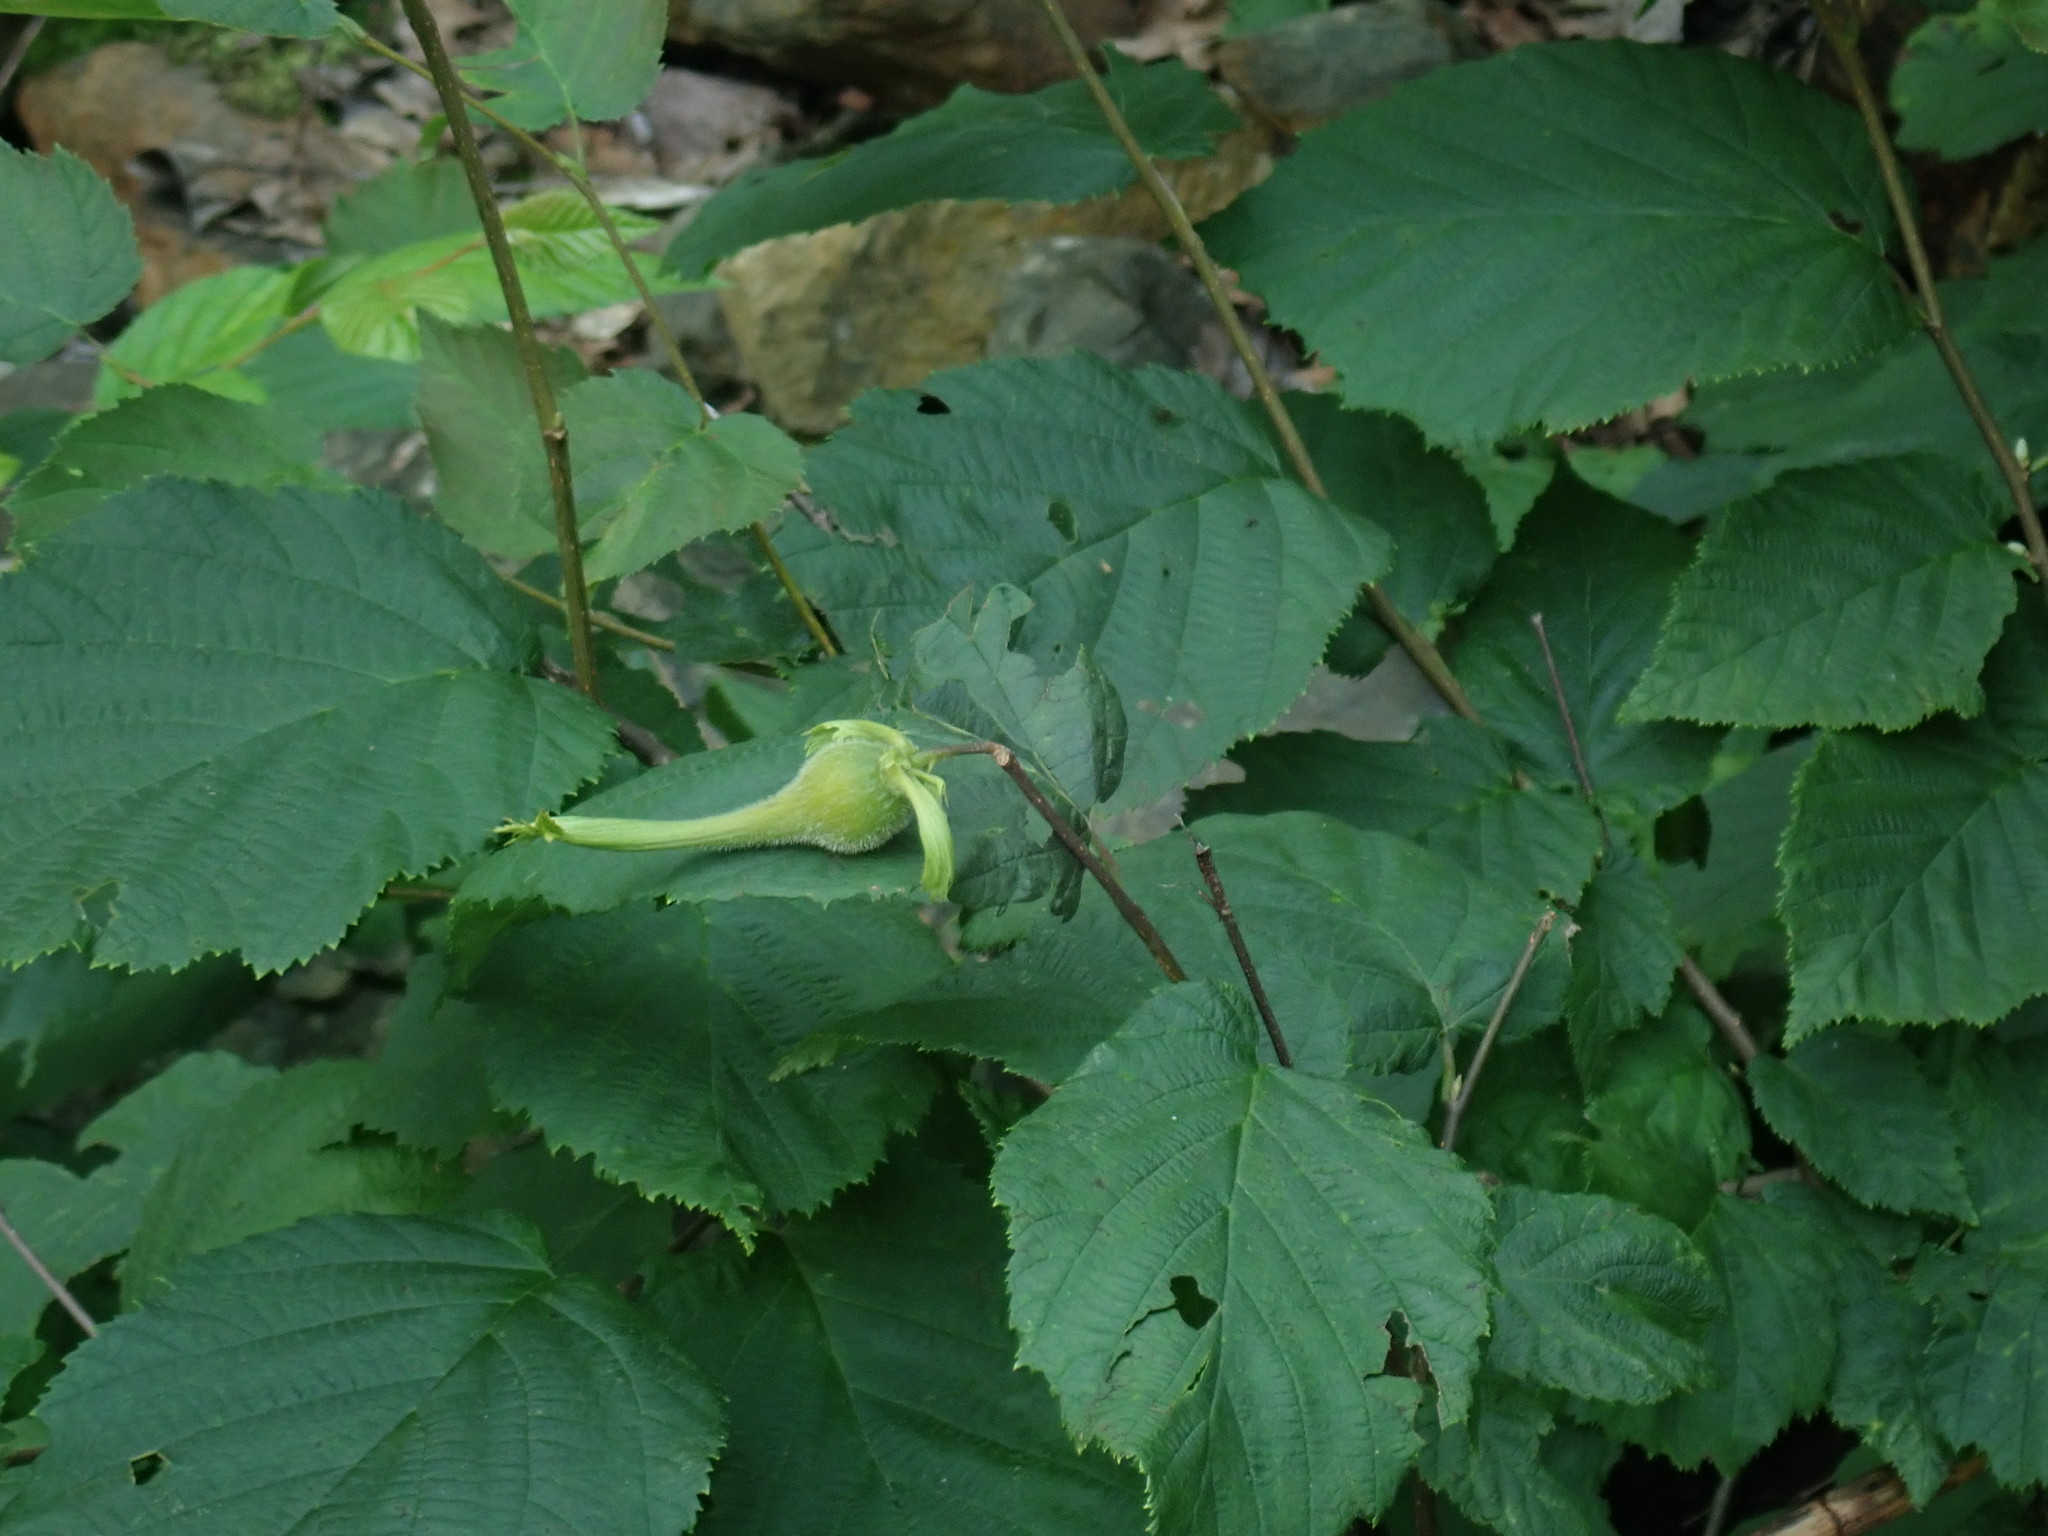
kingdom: Plantae
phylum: Tracheophyta
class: Magnoliopsida
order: Fagales
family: Betulaceae
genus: Corylus
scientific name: Corylus cornuta
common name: Beaked hazel
